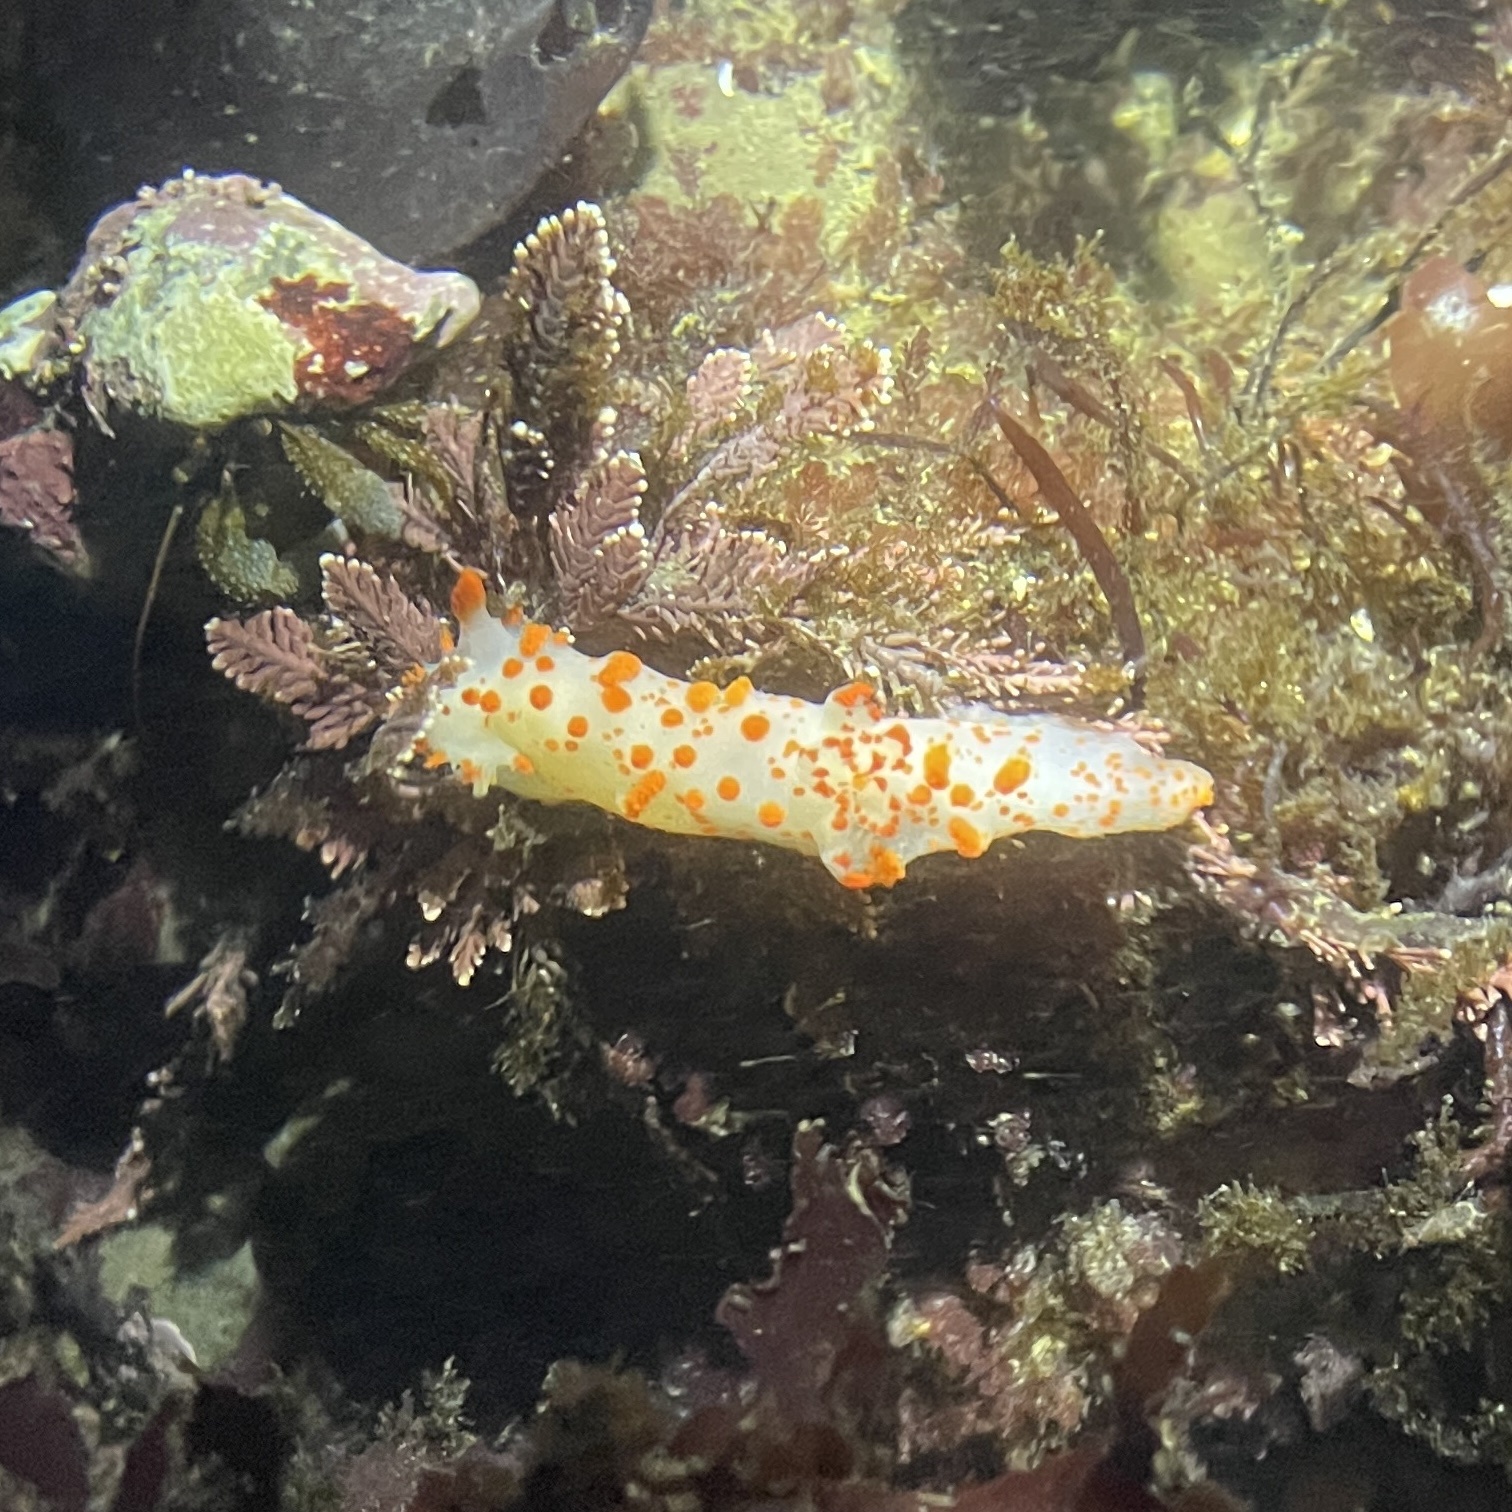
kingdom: Animalia
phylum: Mollusca
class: Gastropoda
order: Nudibranchia
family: Polyceridae
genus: Triopha
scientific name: Triopha catalinae
